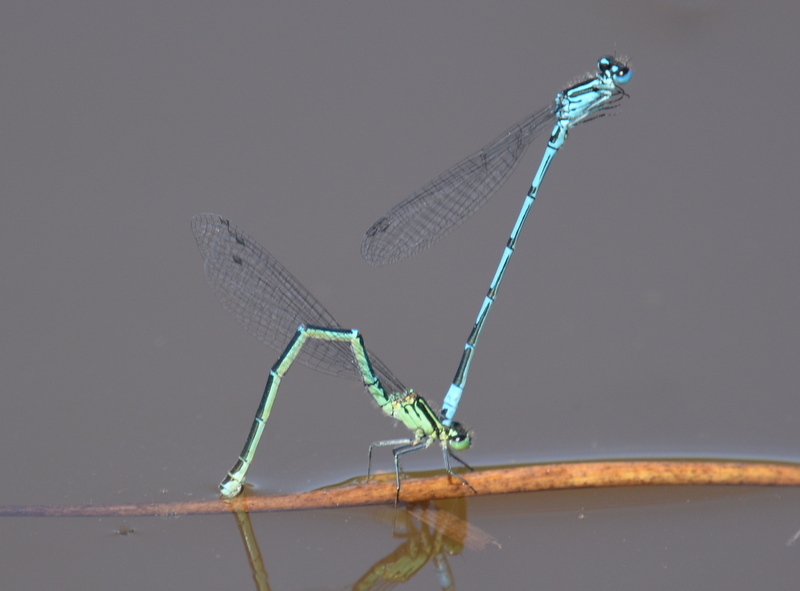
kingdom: Animalia
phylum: Arthropoda
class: Insecta
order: Odonata
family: Coenagrionidae
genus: Coenagrion
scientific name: Coenagrion puella
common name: Azure damselfly
